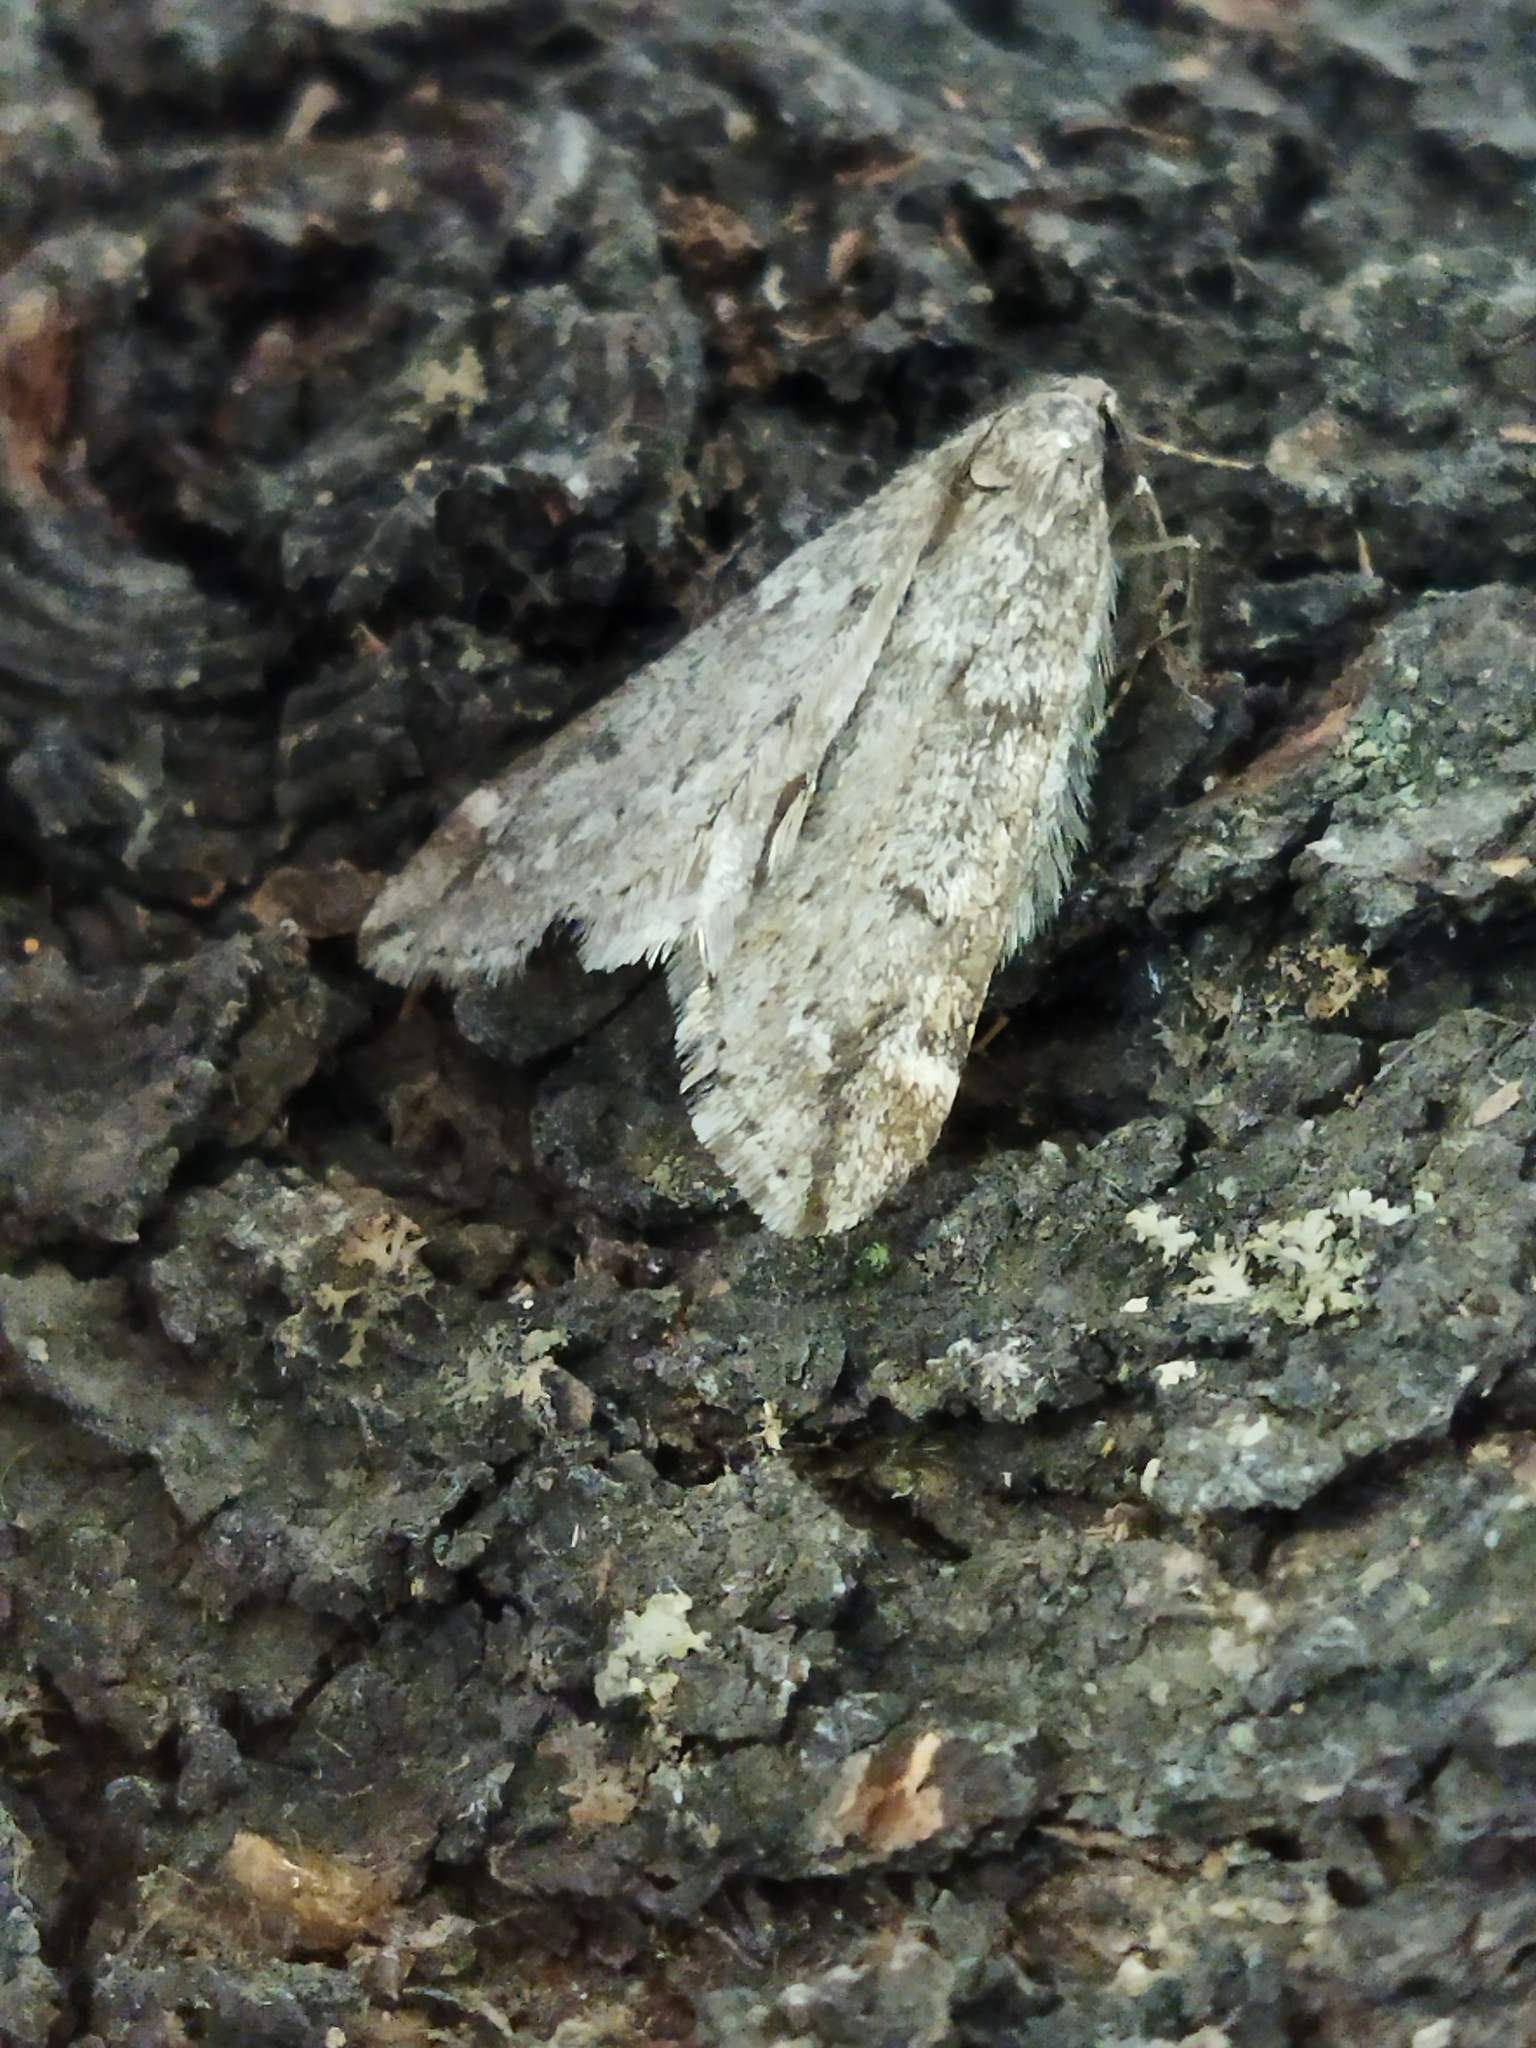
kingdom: Animalia
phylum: Arthropoda
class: Insecta
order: Lepidoptera
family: Geometridae
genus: Alsophila
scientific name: Alsophila aescularia
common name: March moth
